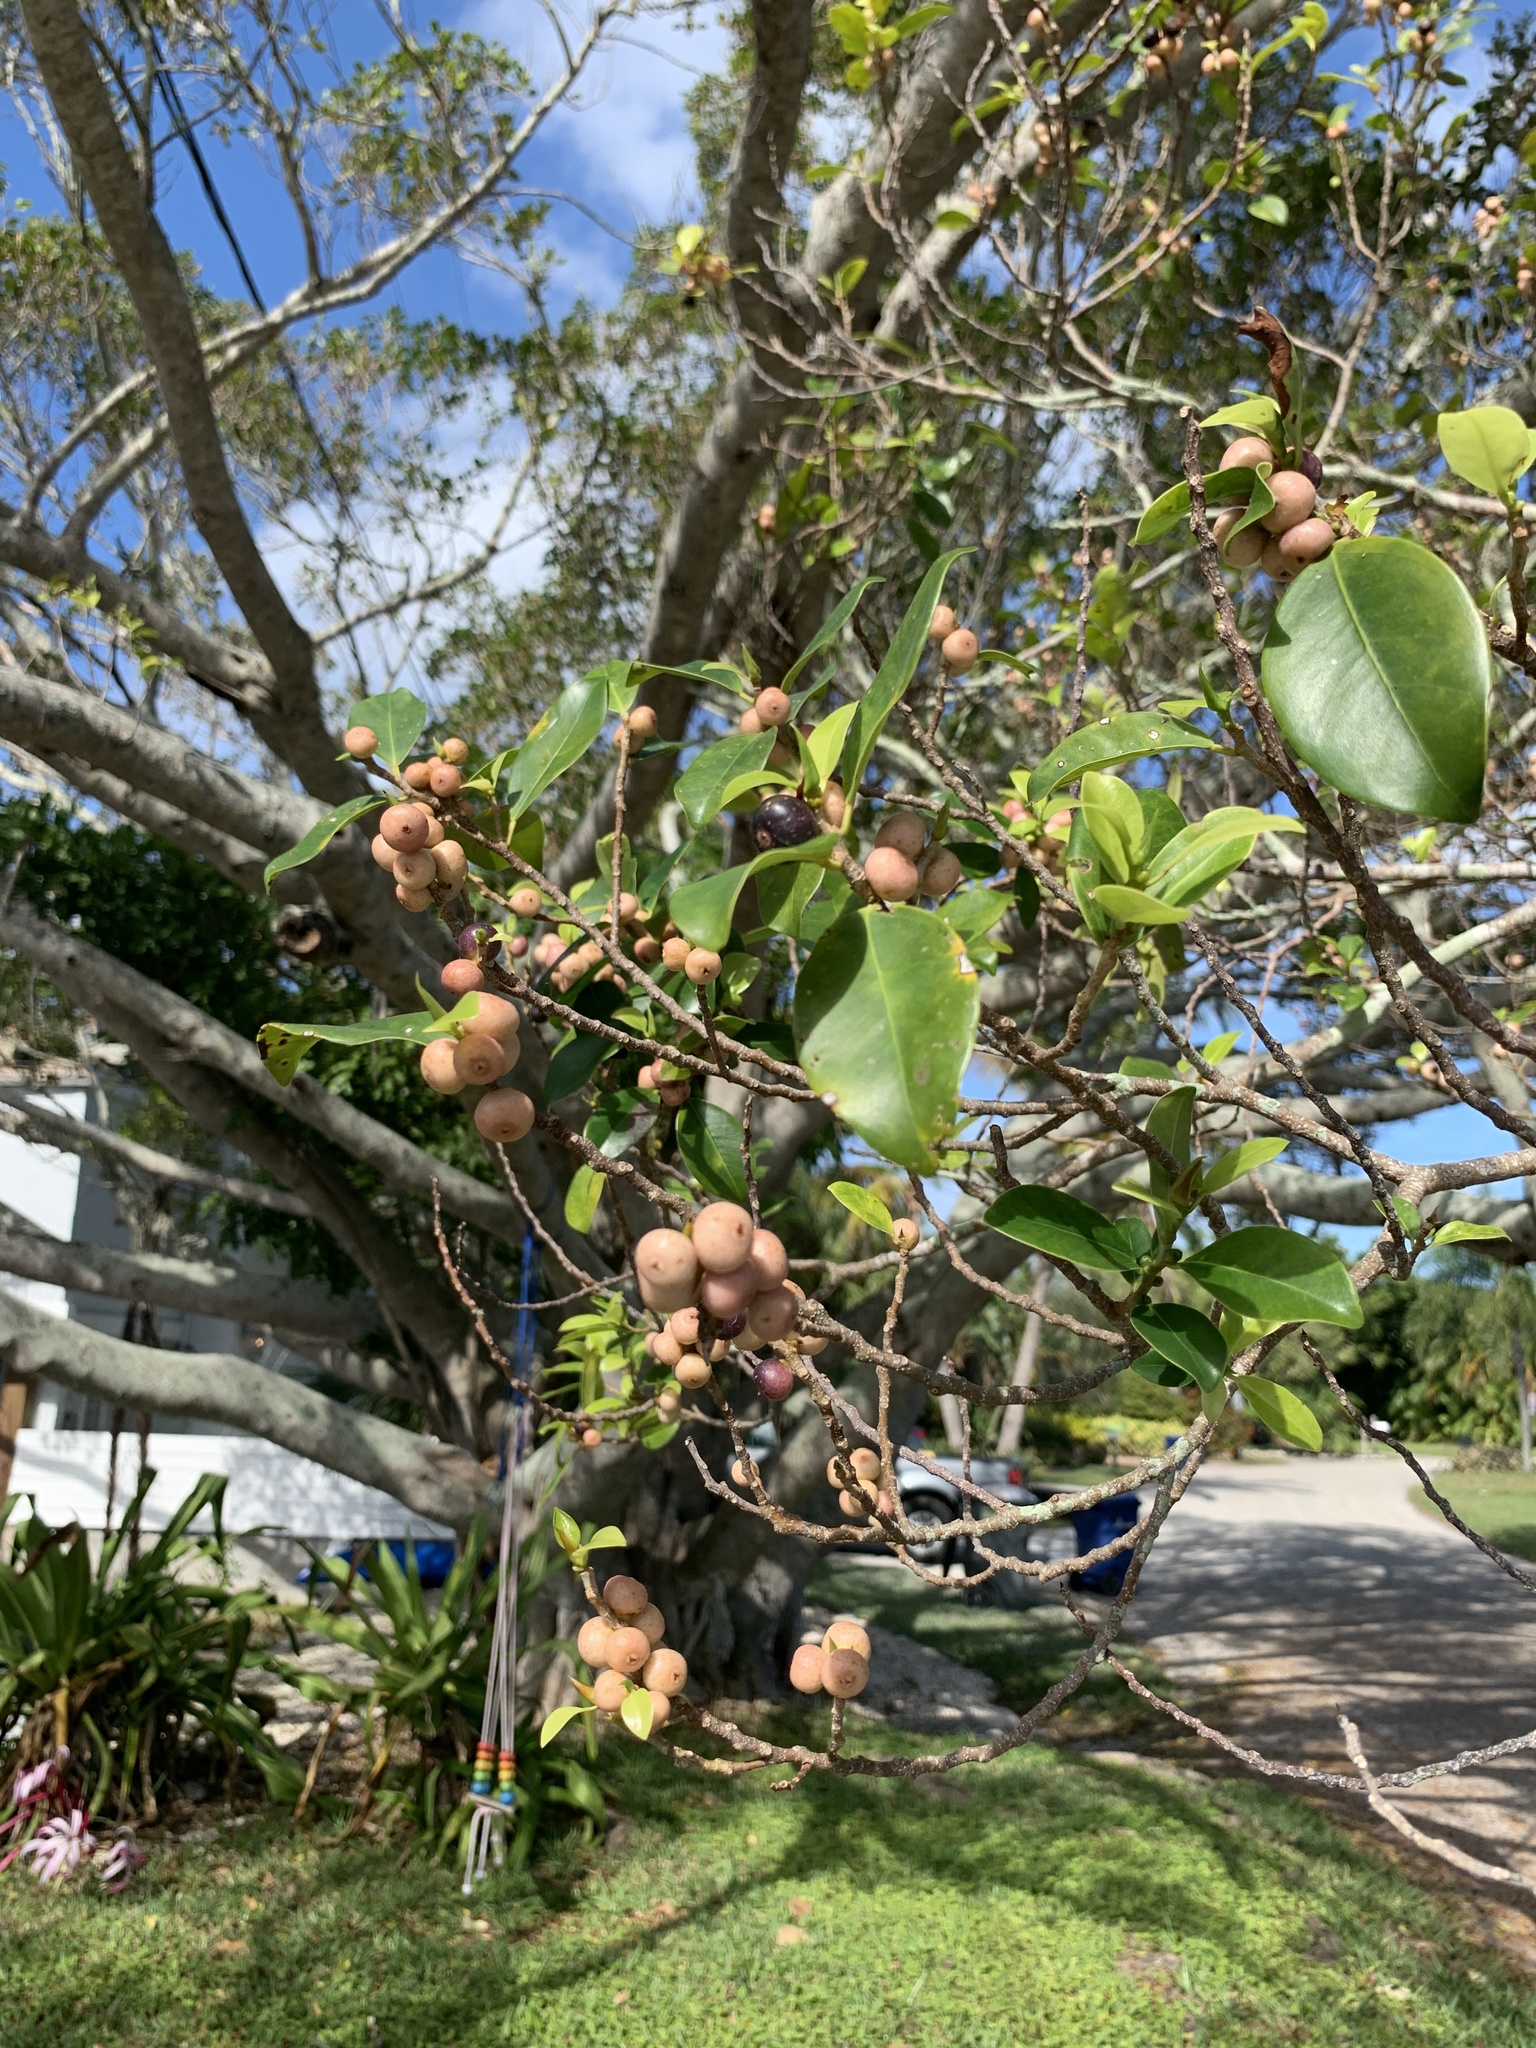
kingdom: Plantae
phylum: Tracheophyta
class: Magnoliopsida
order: Rosales
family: Moraceae
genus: Ficus
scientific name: Ficus microcarpa
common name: Chinese banyan
